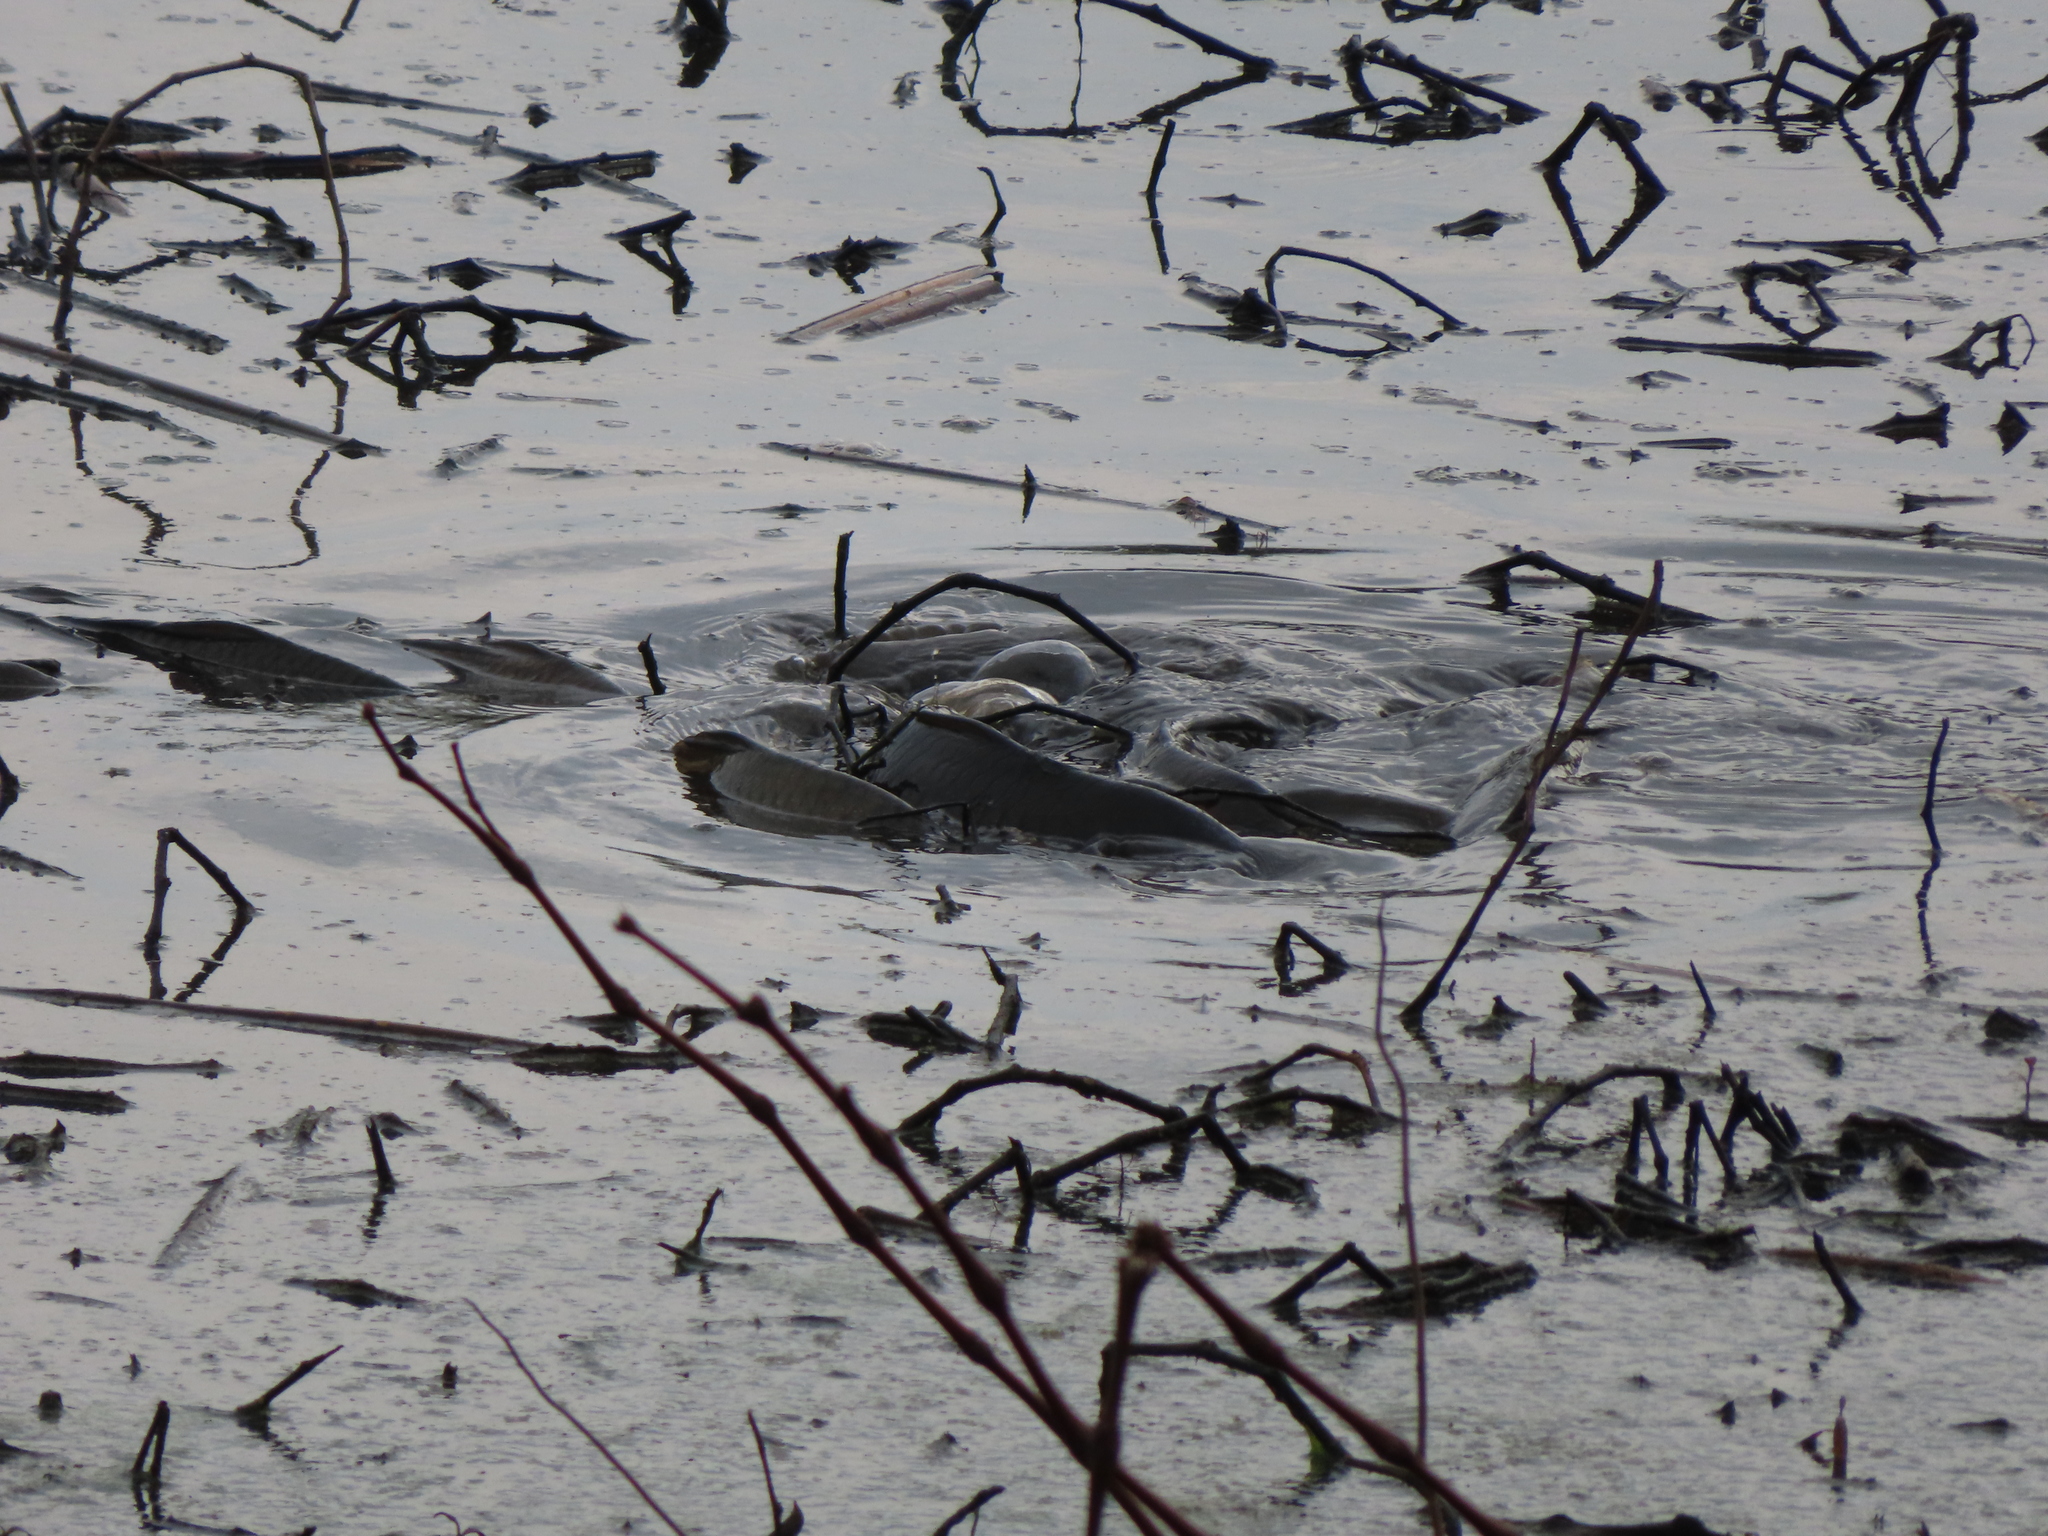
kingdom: Animalia
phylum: Chordata
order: Cypriniformes
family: Cyprinidae
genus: Cyprinus
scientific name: Cyprinus carpio
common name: Common carp
